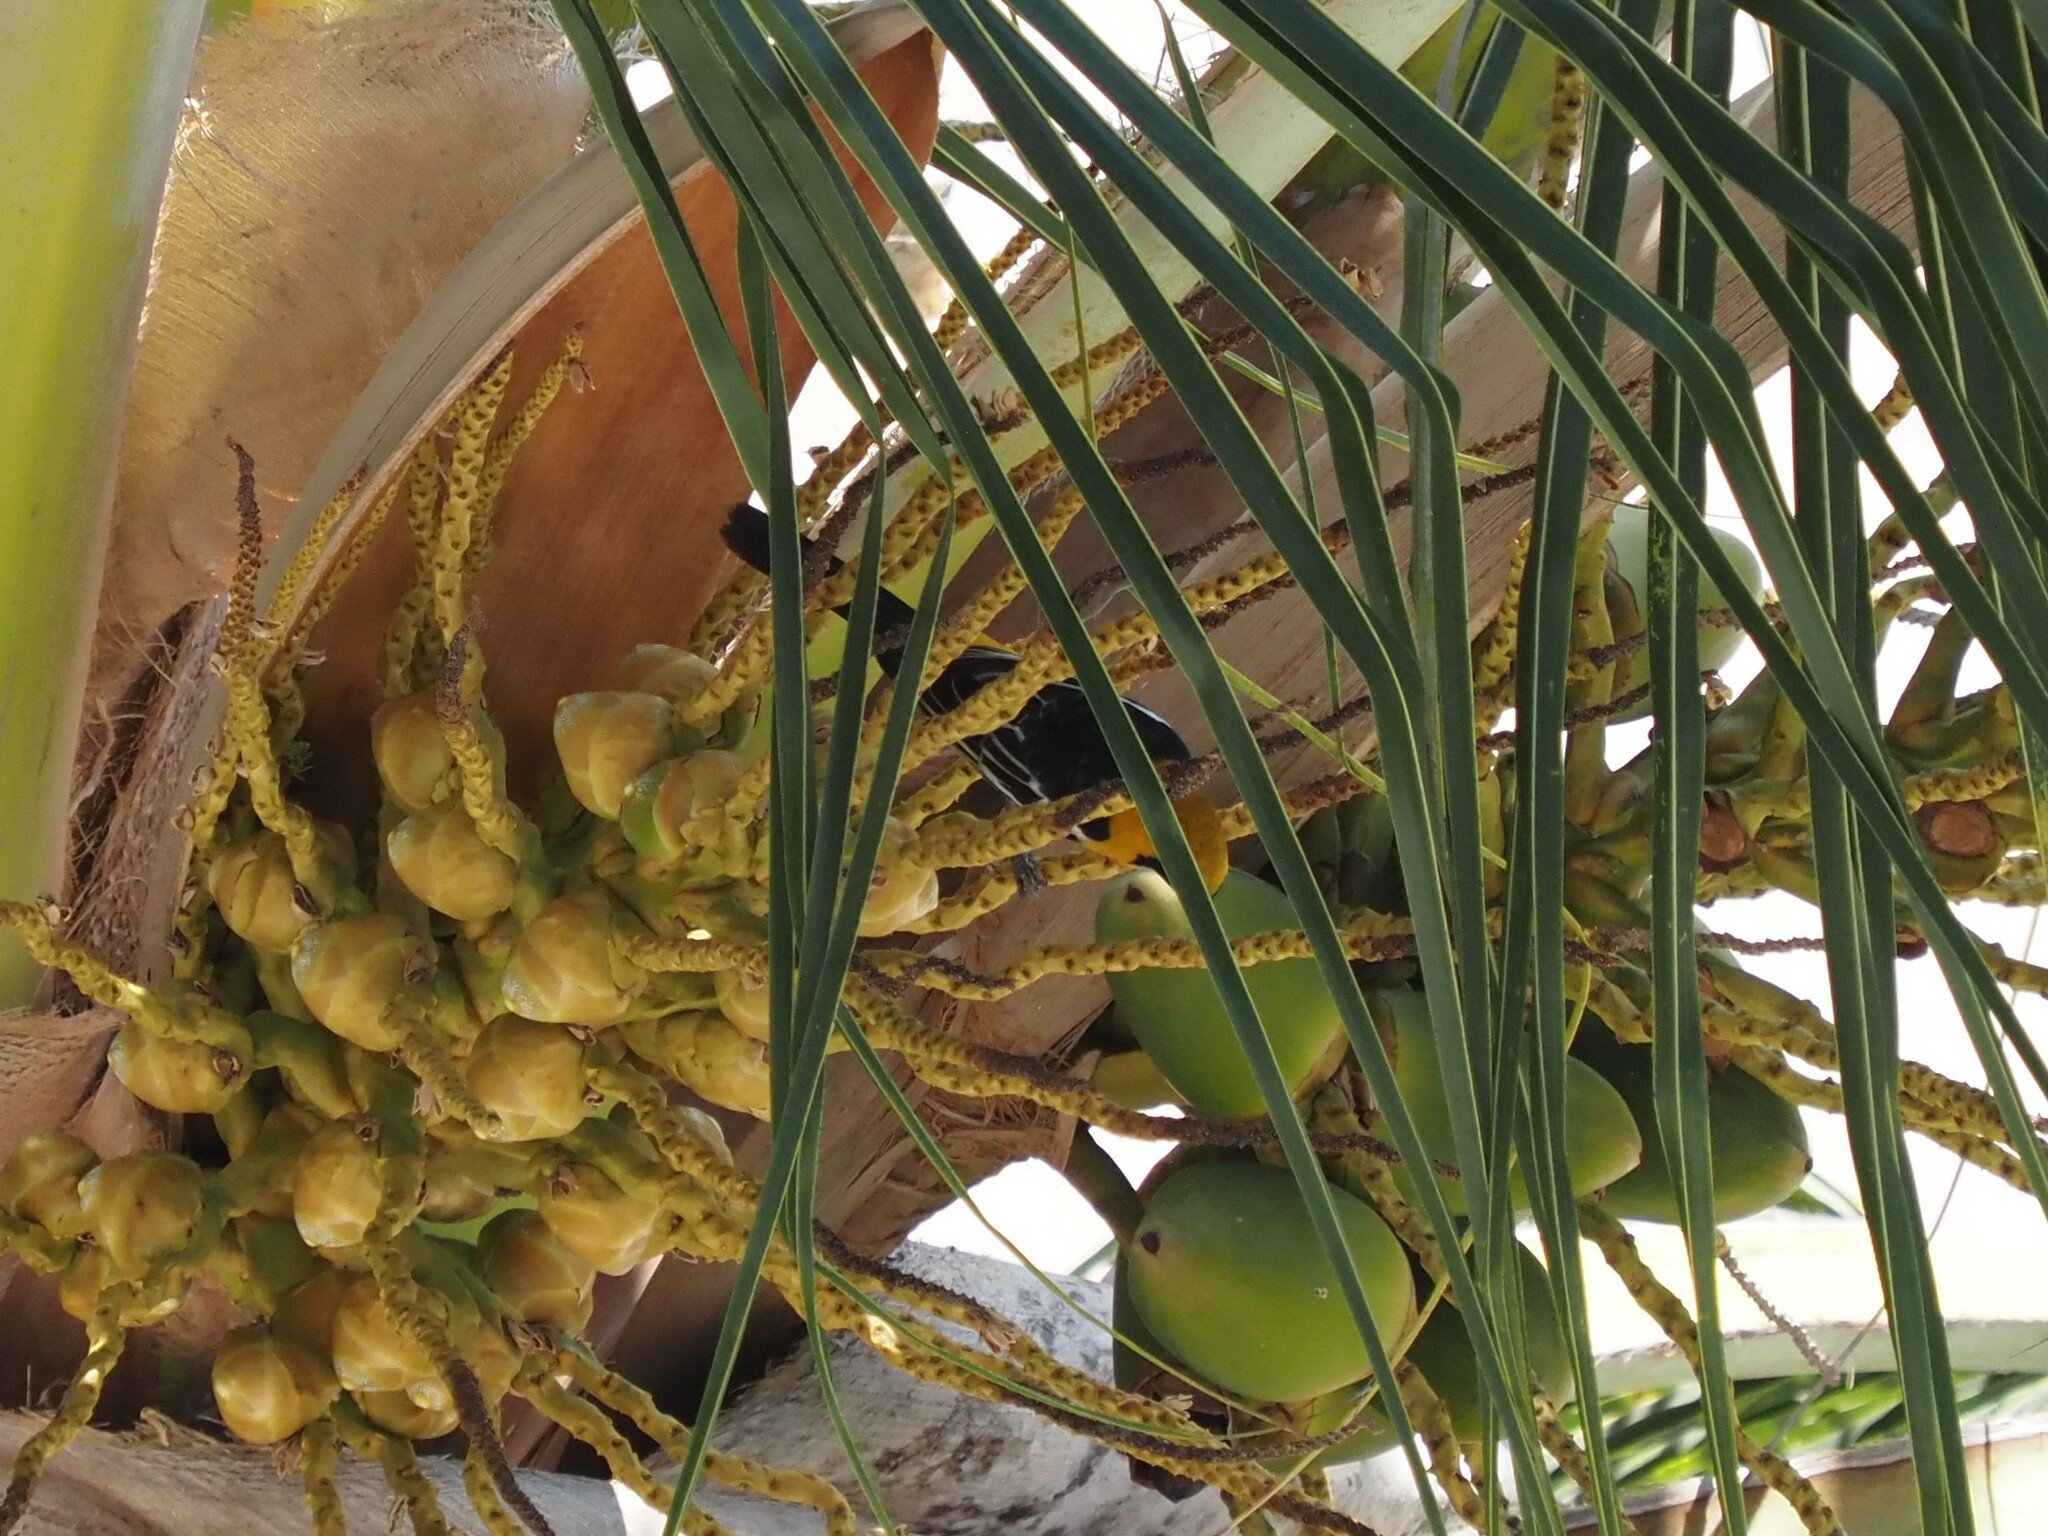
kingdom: Animalia
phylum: Chordata
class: Aves
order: Passeriformes
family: Icteridae
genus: Icterus
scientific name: Icterus cucullatus
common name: Hooded oriole
